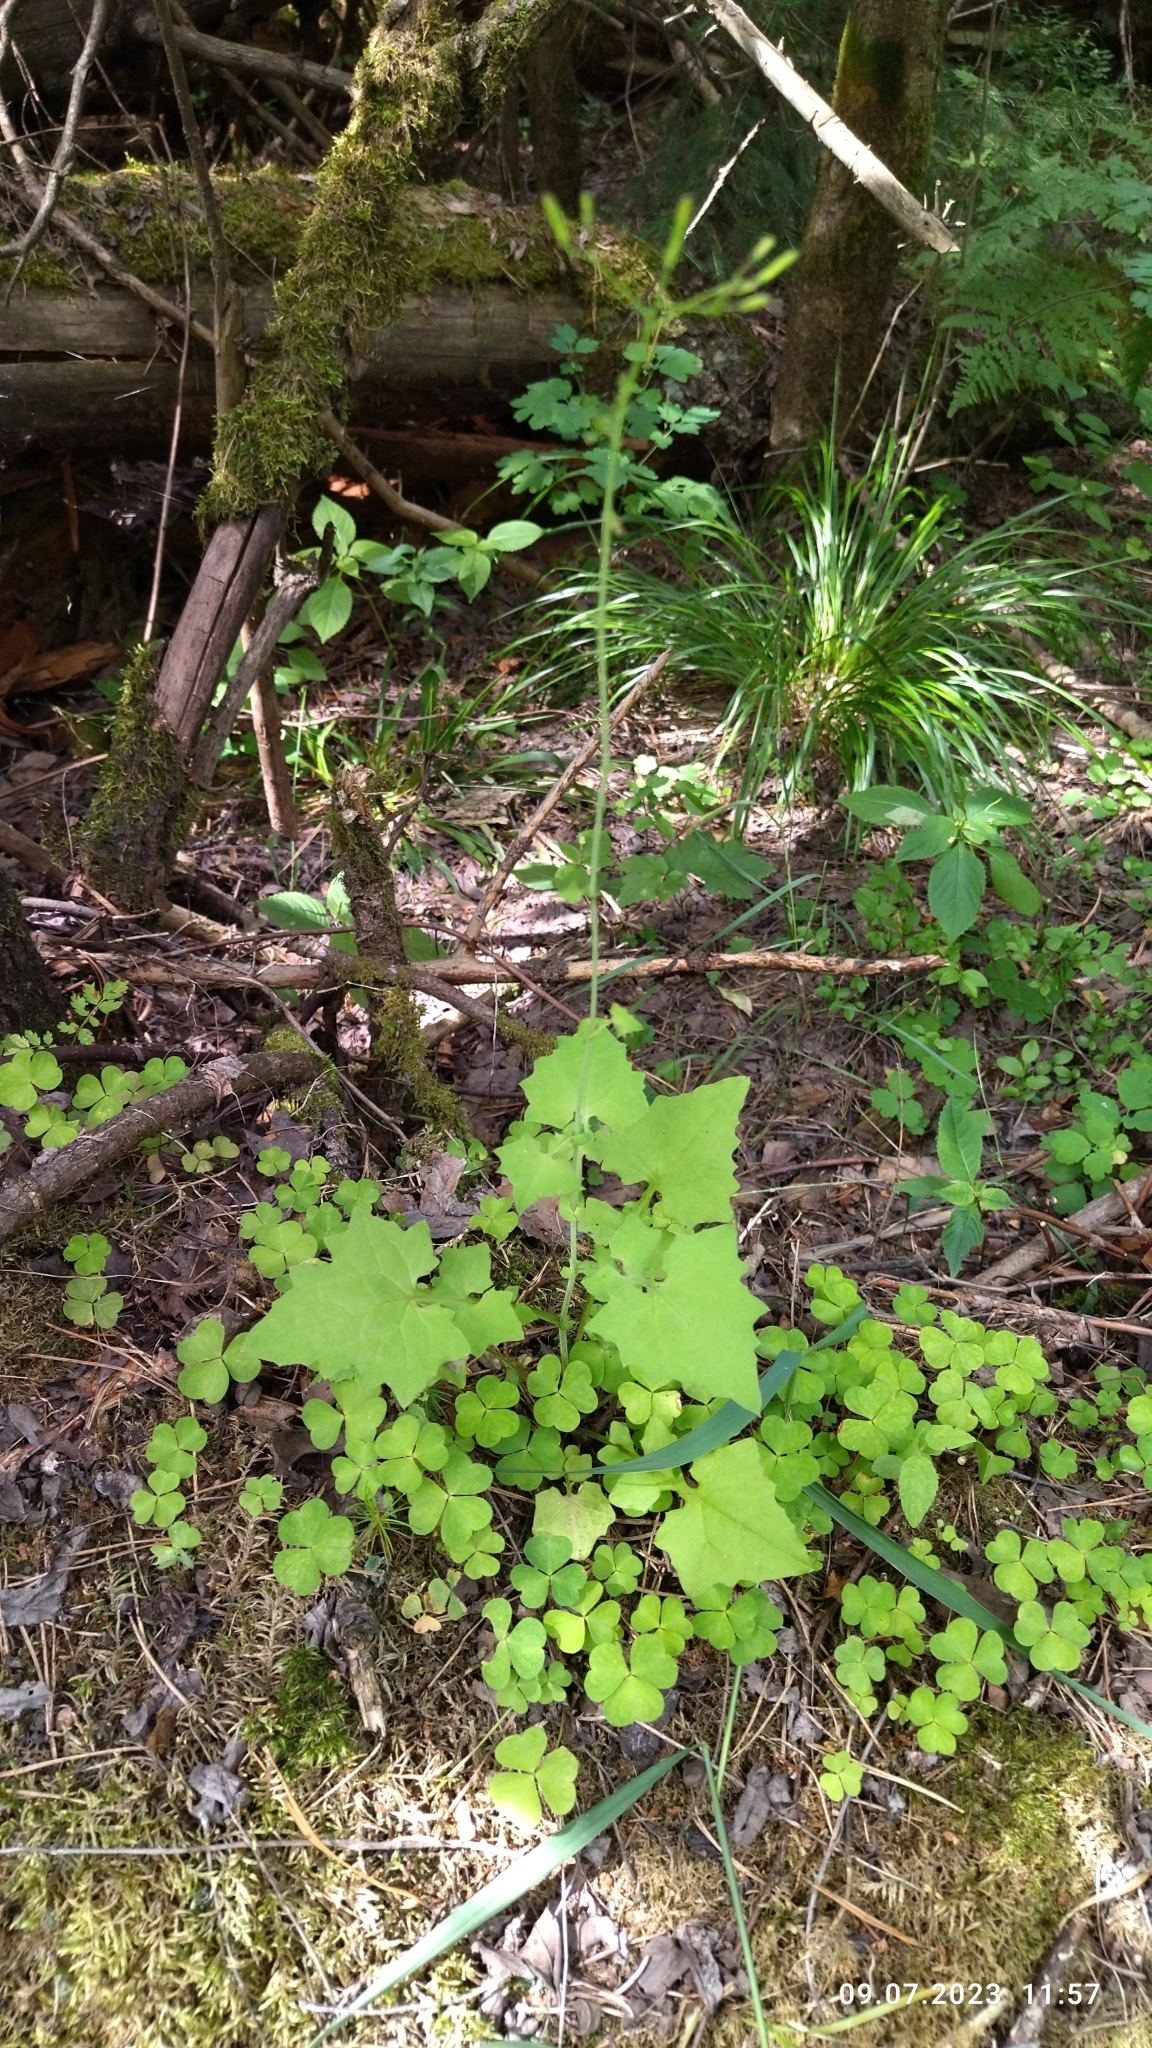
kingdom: Plantae
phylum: Tracheophyta
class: Magnoliopsida
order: Asterales
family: Asteraceae
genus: Mycelis
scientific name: Mycelis muralis
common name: Wall lettuce
